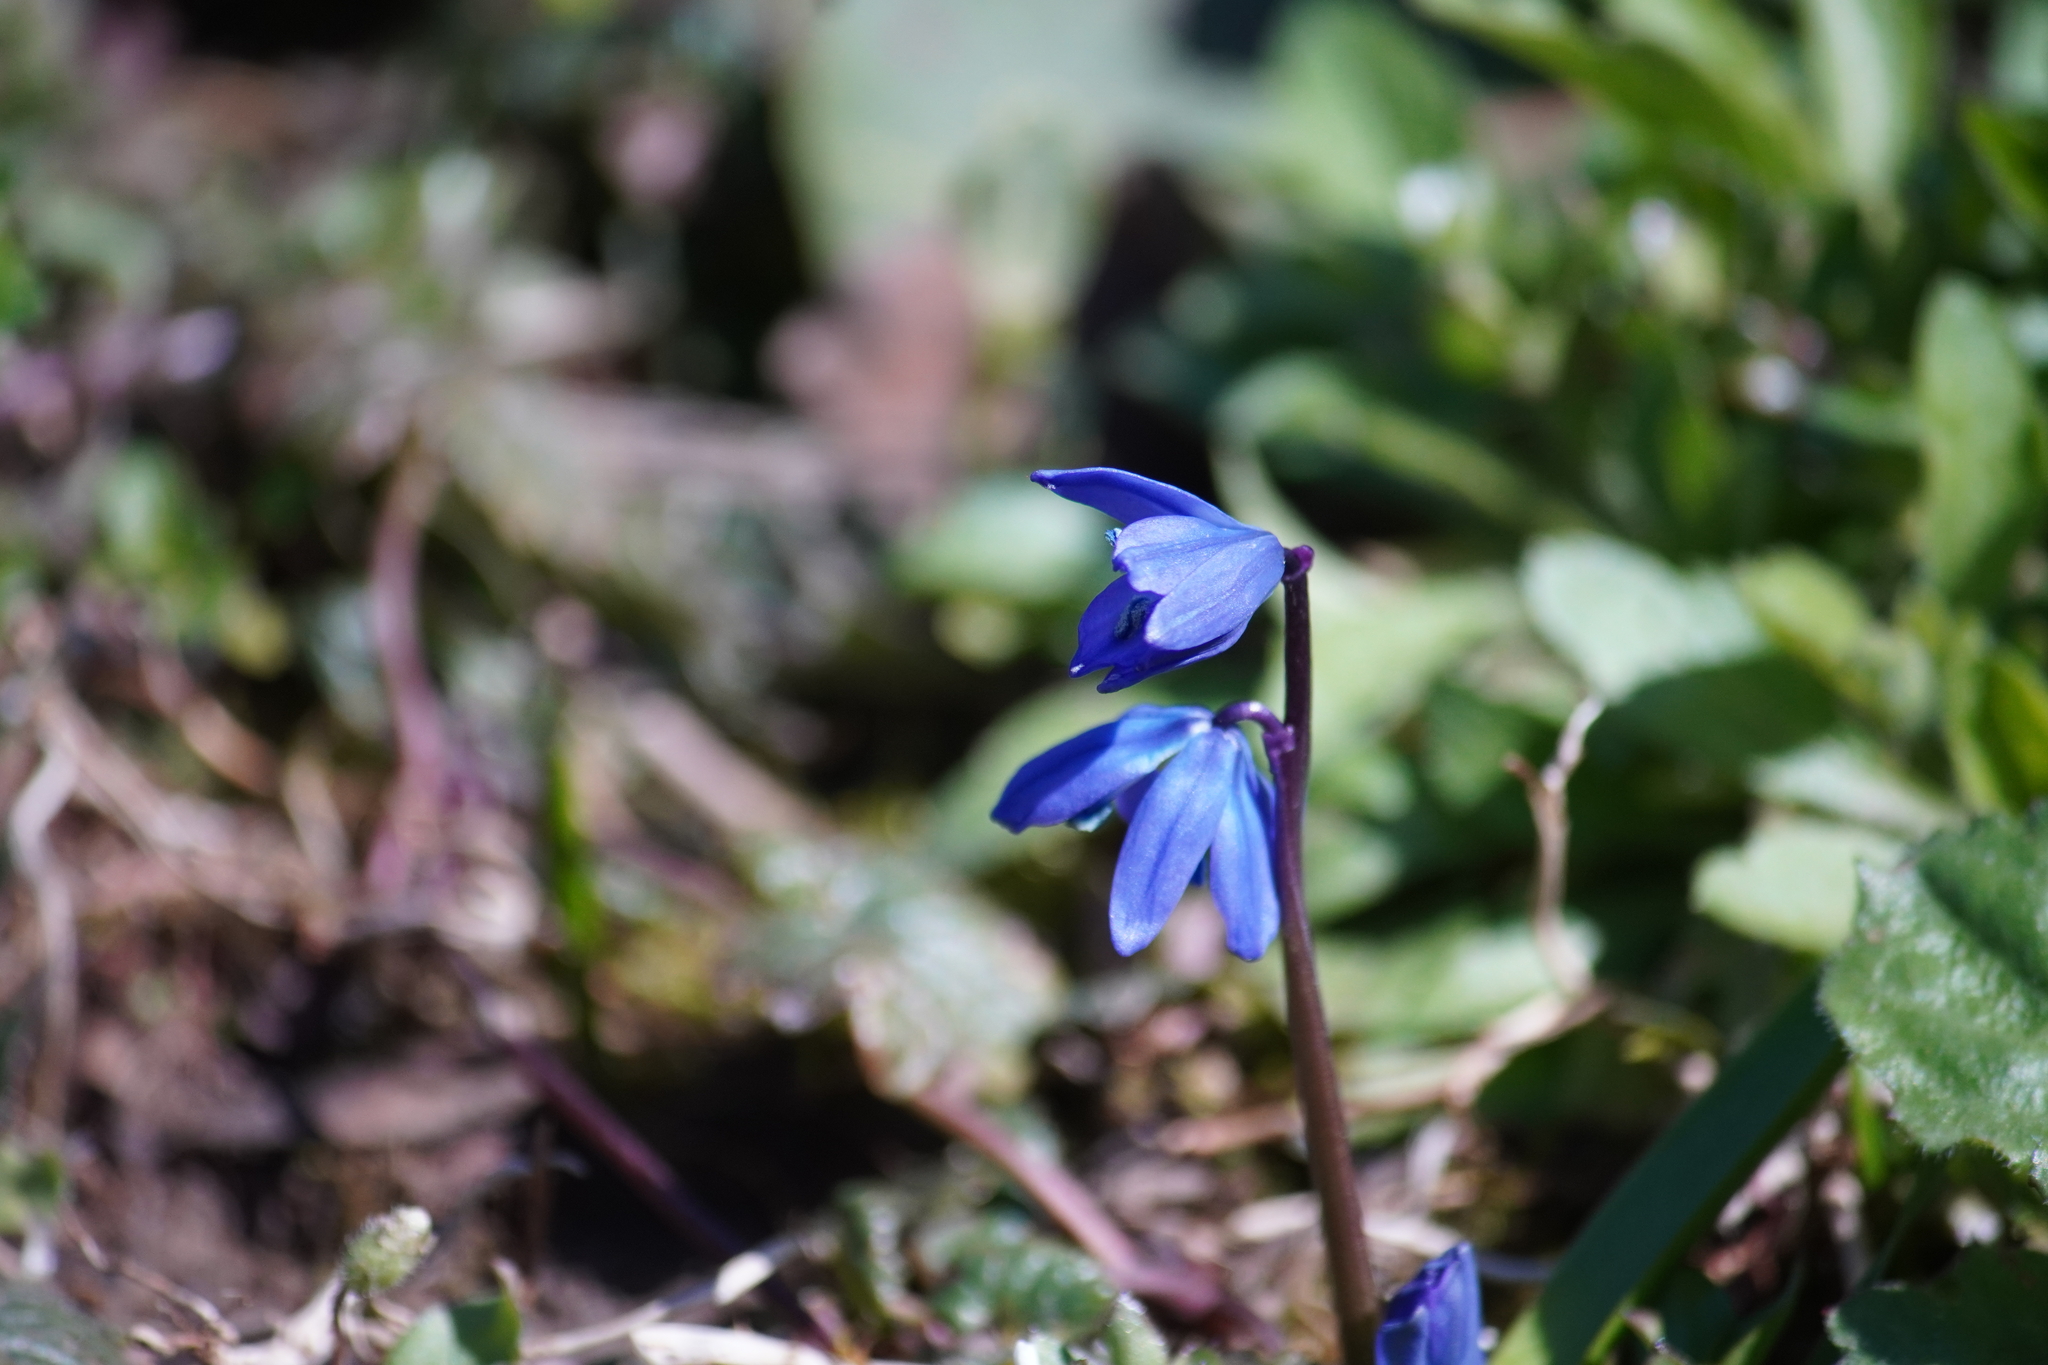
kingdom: Plantae
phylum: Tracheophyta
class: Liliopsida
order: Asparagales
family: Asparagaceae
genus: Scilla
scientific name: Scilla siberica
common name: Siberian squill
